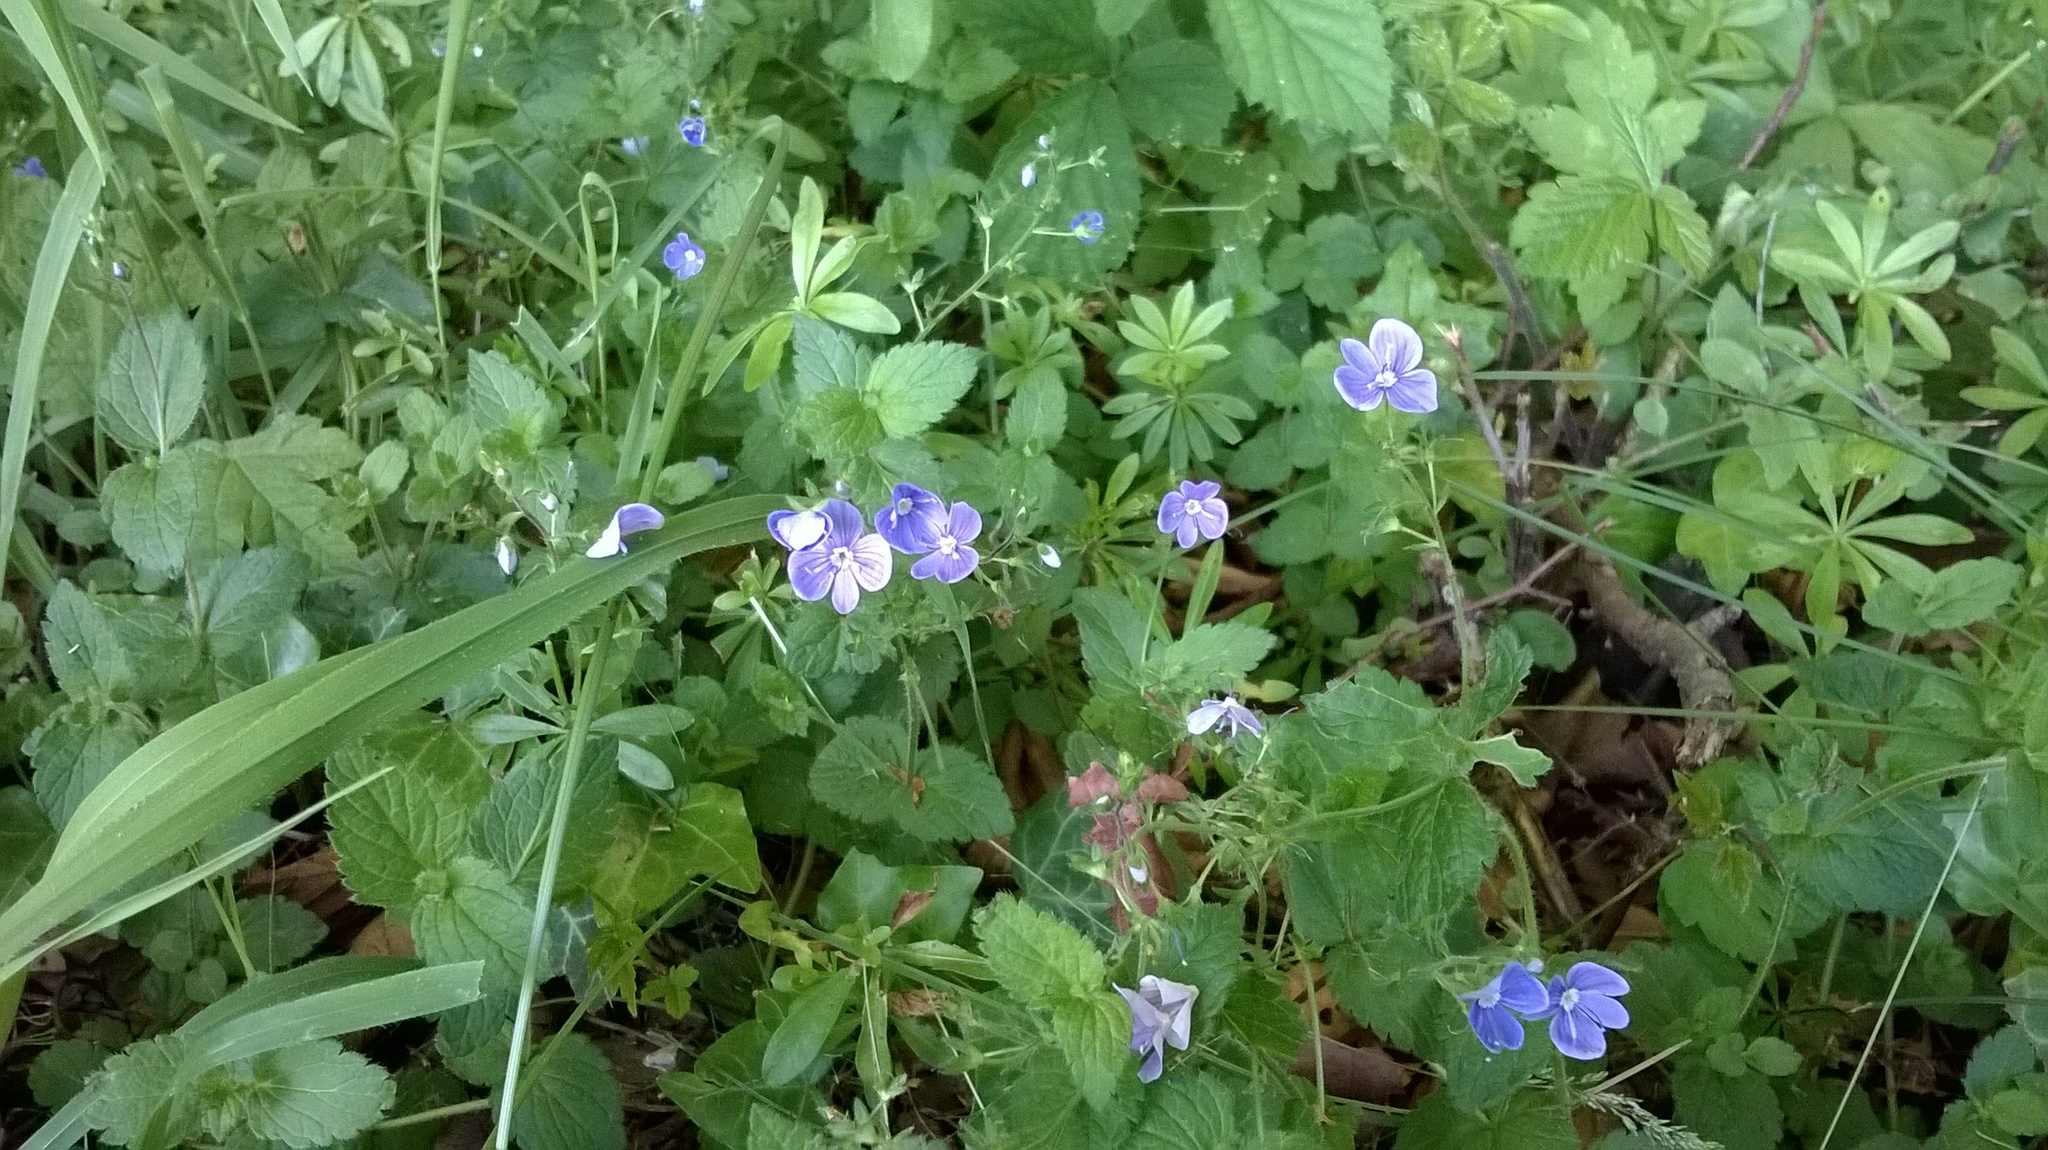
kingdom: Plantae
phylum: Tracheophyta
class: Magnoliopsida
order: Lamiales
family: Plantaginaceae
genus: Veronica
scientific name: Veronica chamaedrys
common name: Germander speedwell
